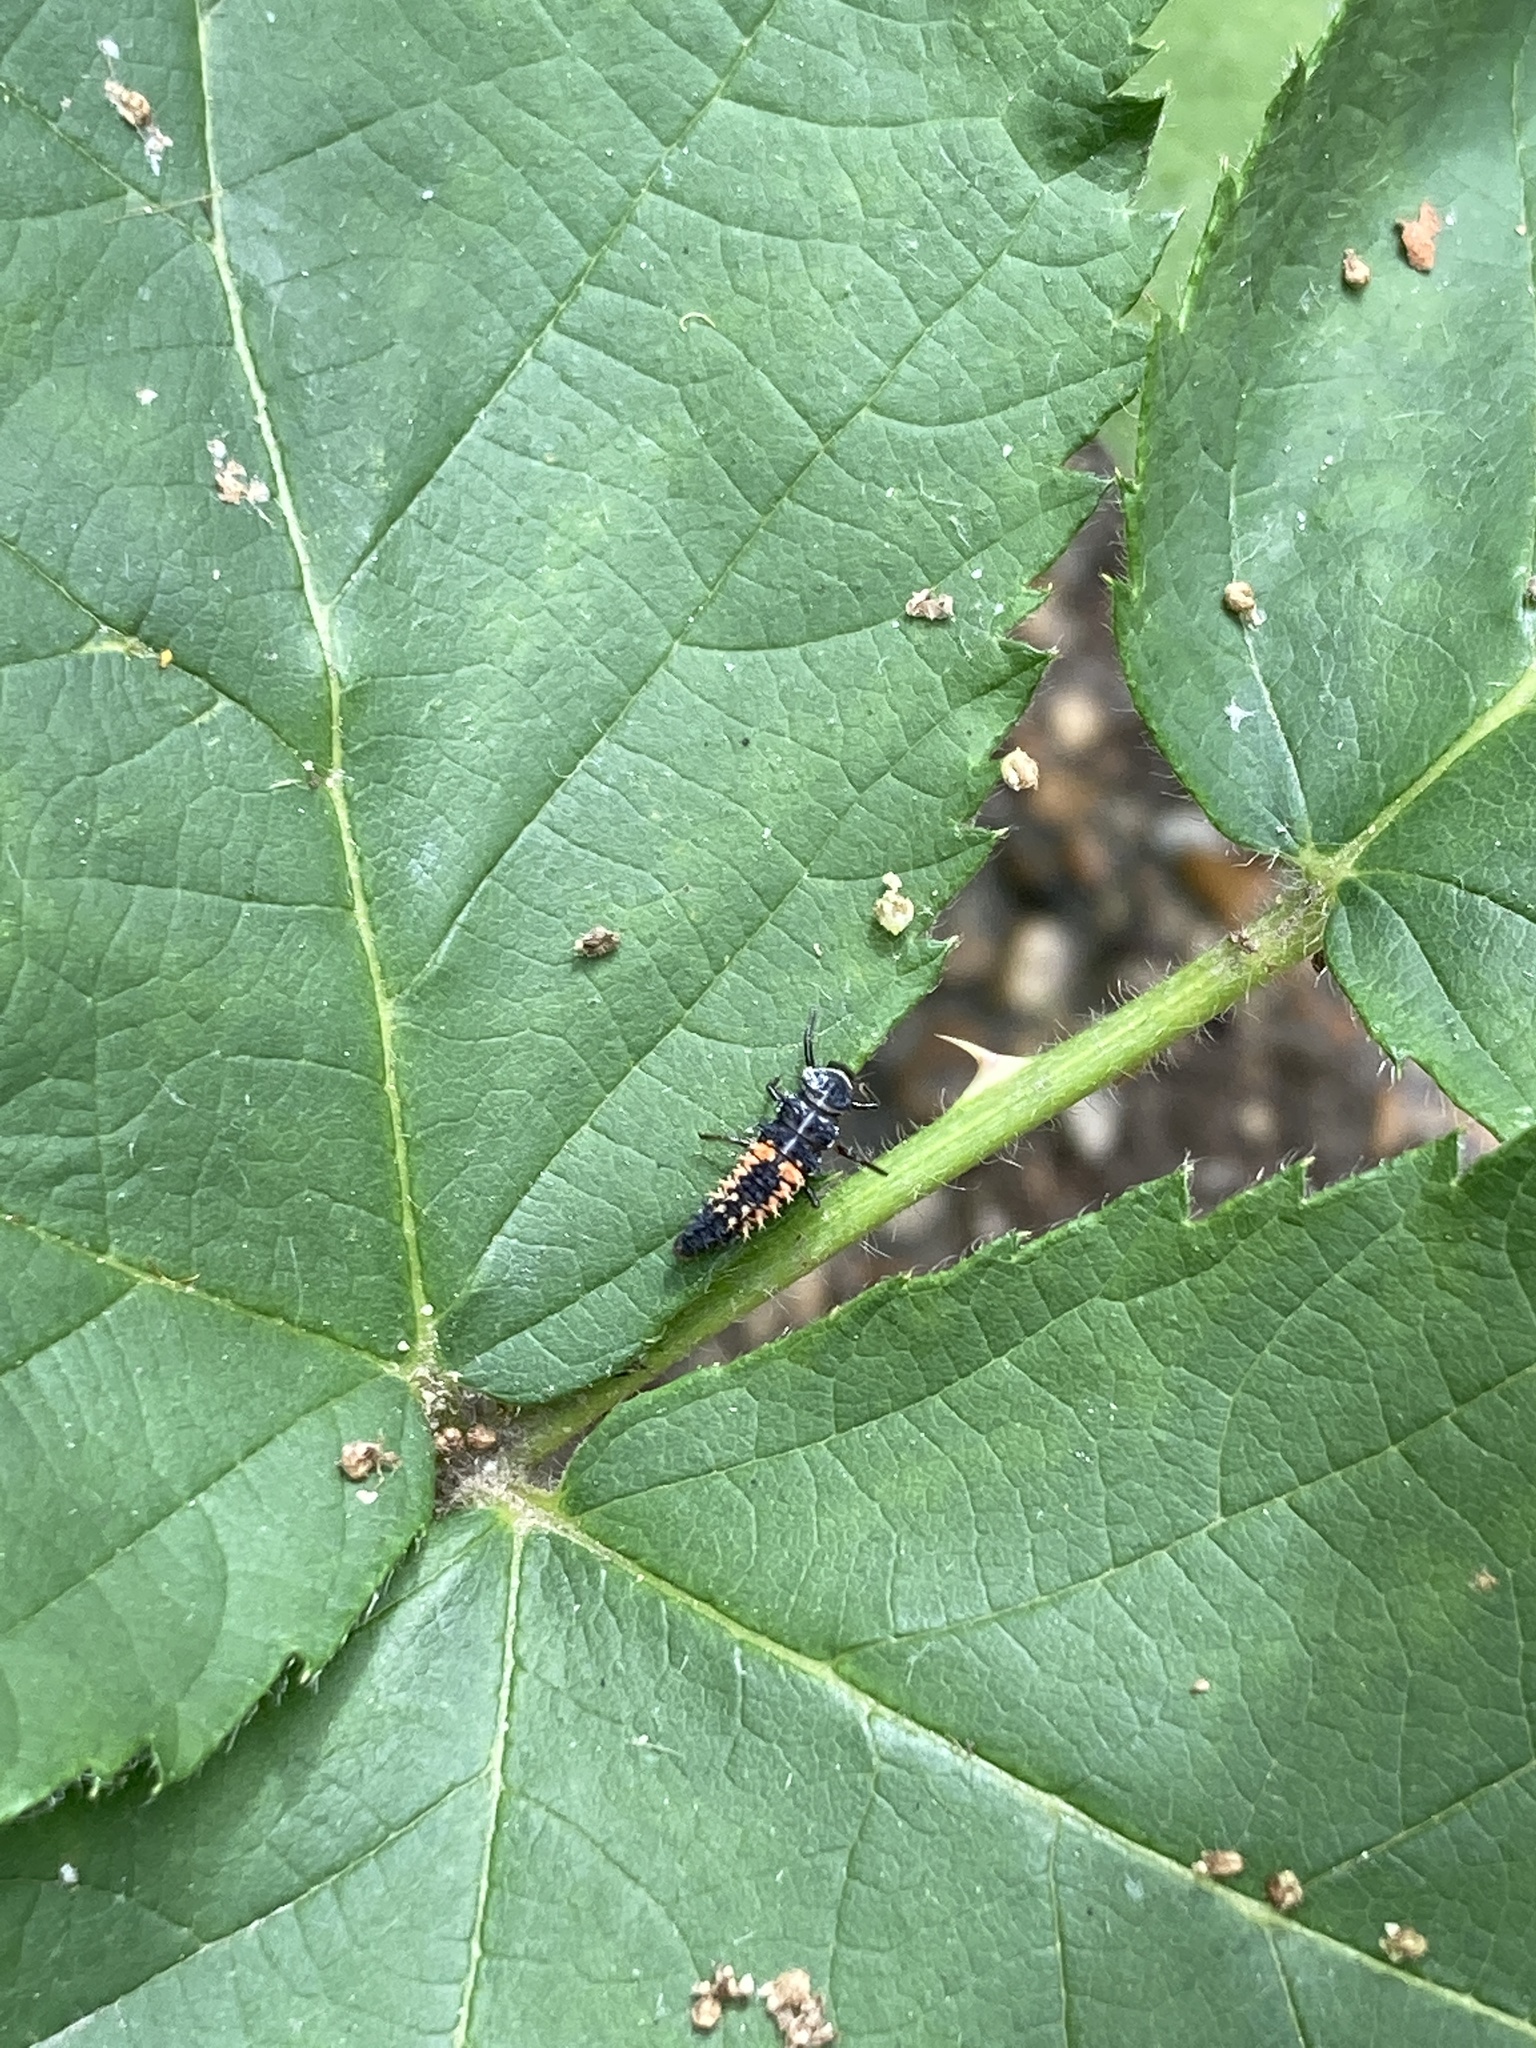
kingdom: Animalia
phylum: Arthropoda
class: Insecta
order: Coleoptera
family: Coccinellidae
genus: Harmonia
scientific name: Harmonia axyridis
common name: Harlequin ladybird
